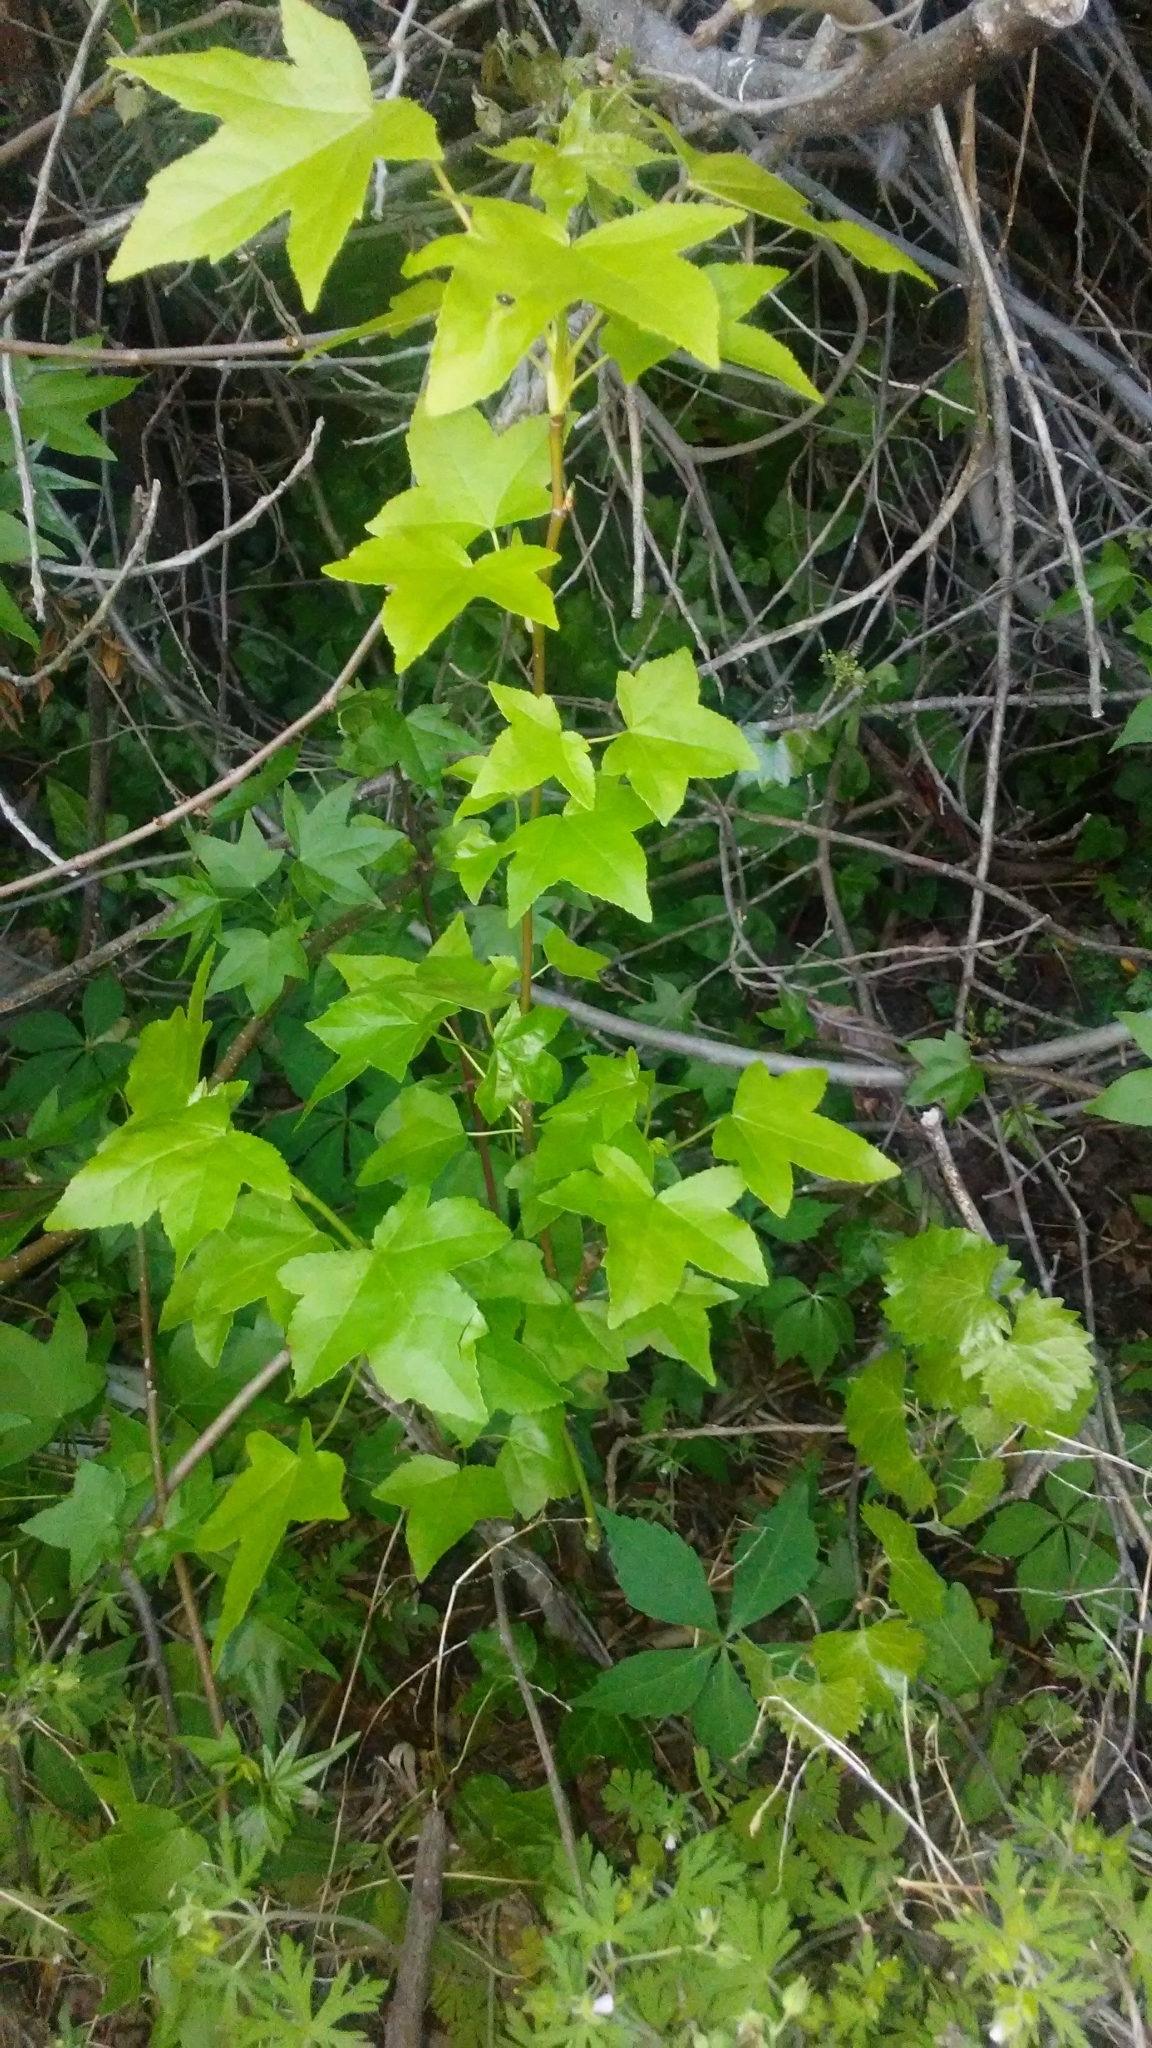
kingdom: Plantae
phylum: Tracheophyta
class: Magnoliopsida
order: Saxifragales
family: Altingiaceae
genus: Liquidambar
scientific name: Liquidambar styraciflua
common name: Sweet gum
